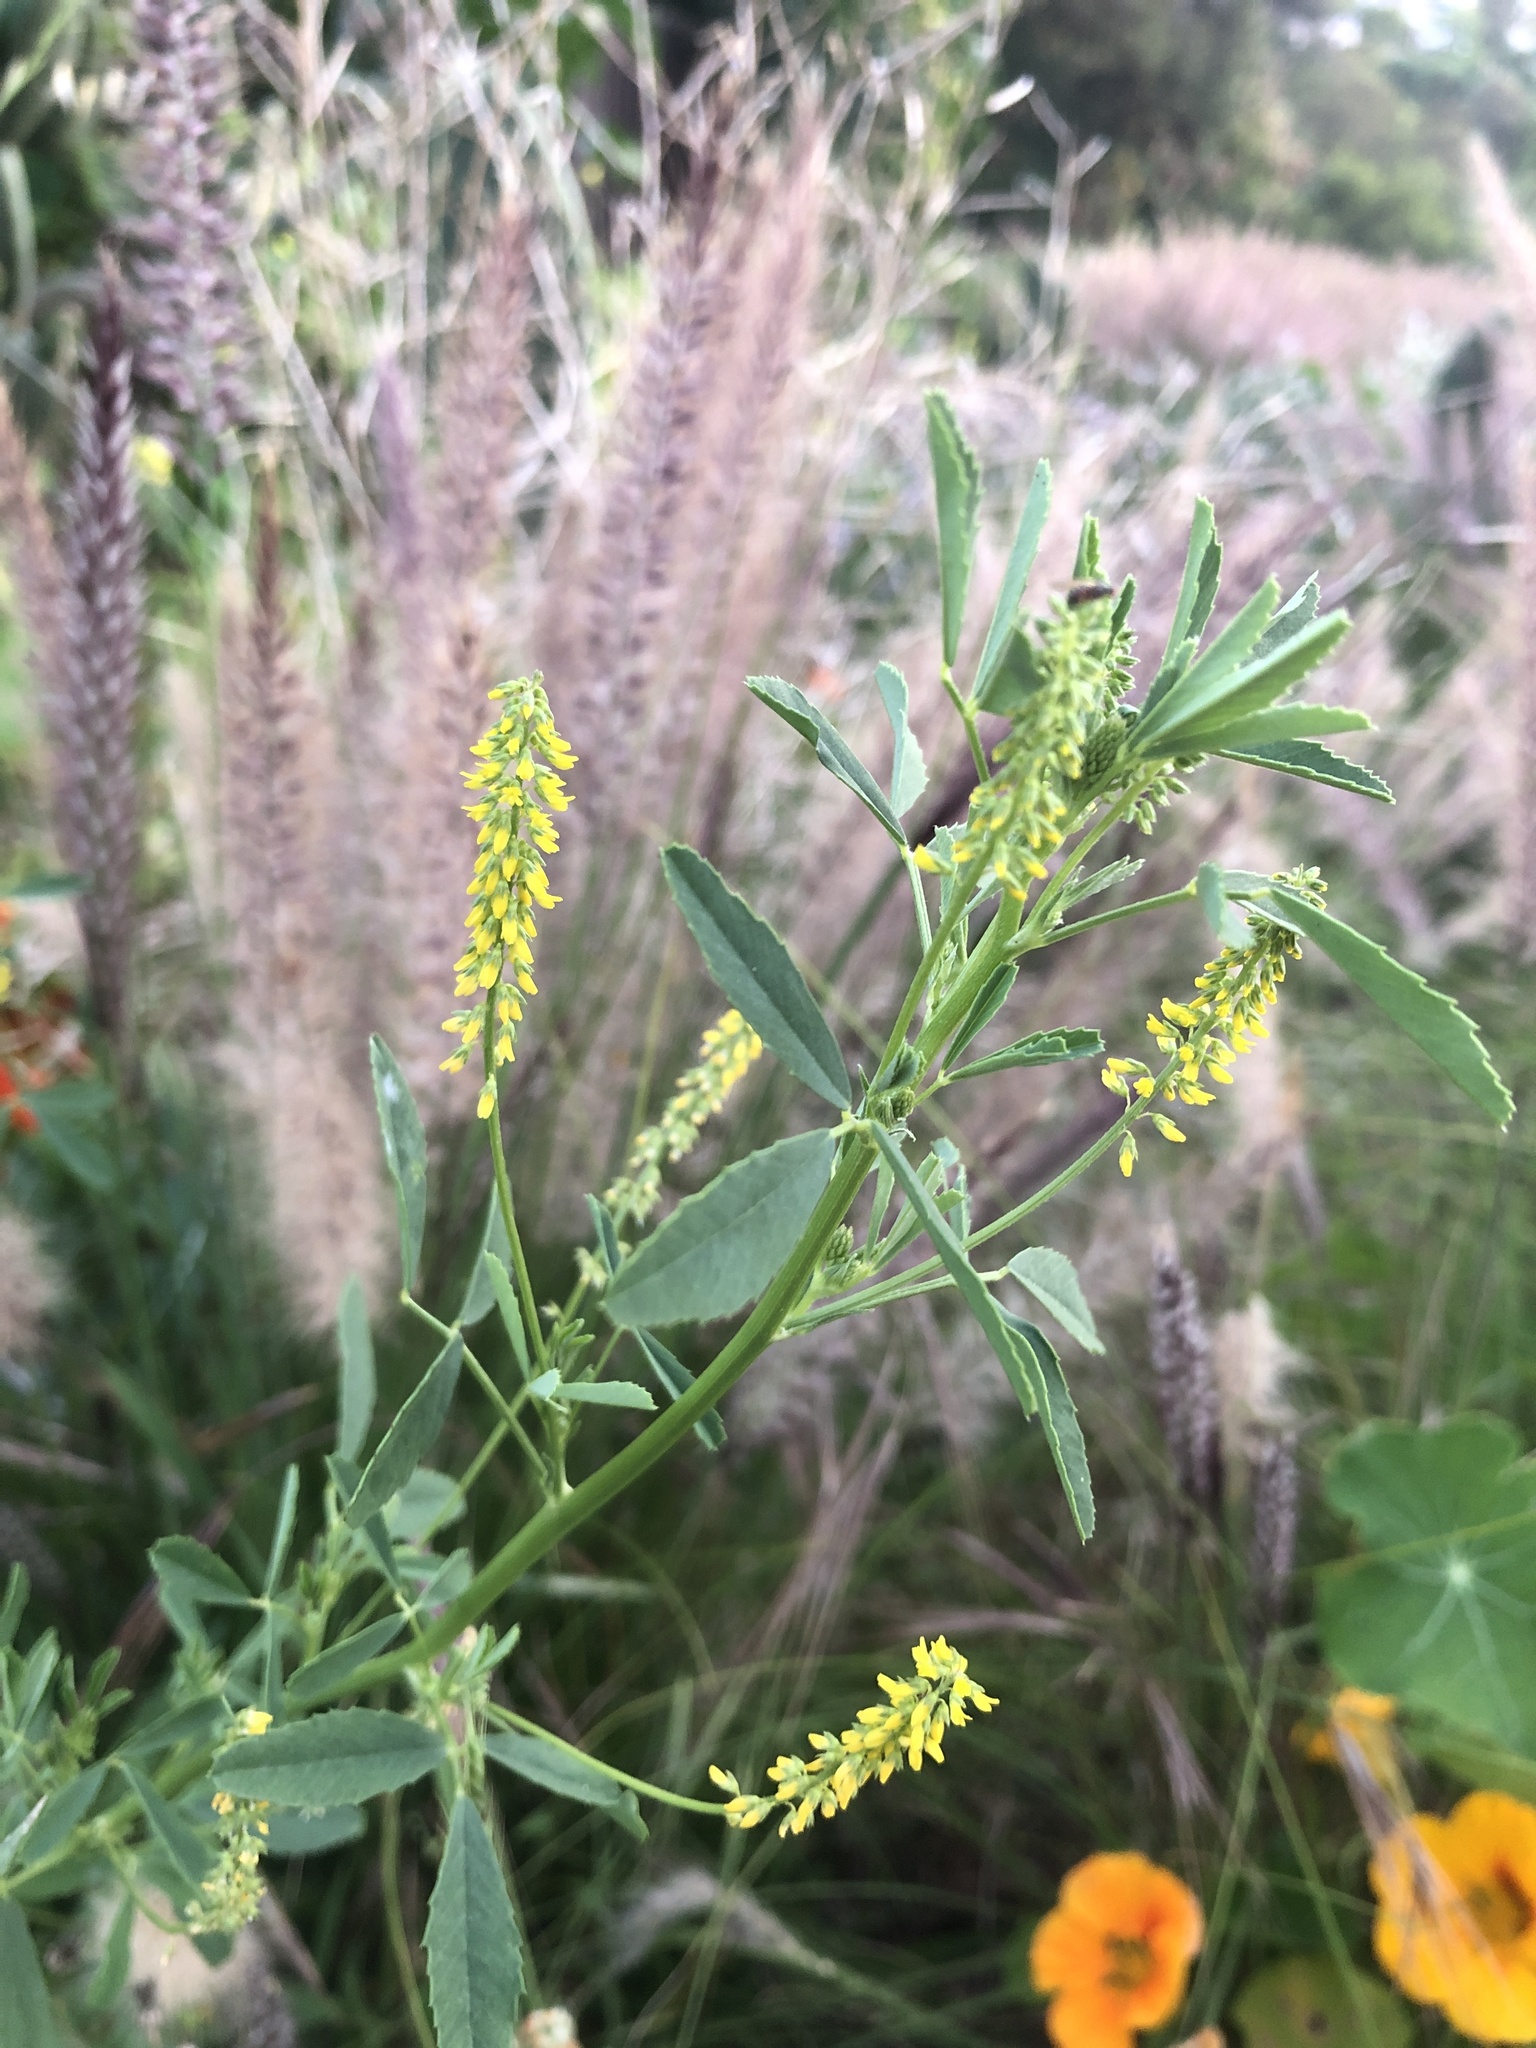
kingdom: Plantae
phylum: Tracheophyta
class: Magnoliopsida
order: Fabales
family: Fabaceae
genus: Melilotus
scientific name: Melilotus indicus
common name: Small melilot
